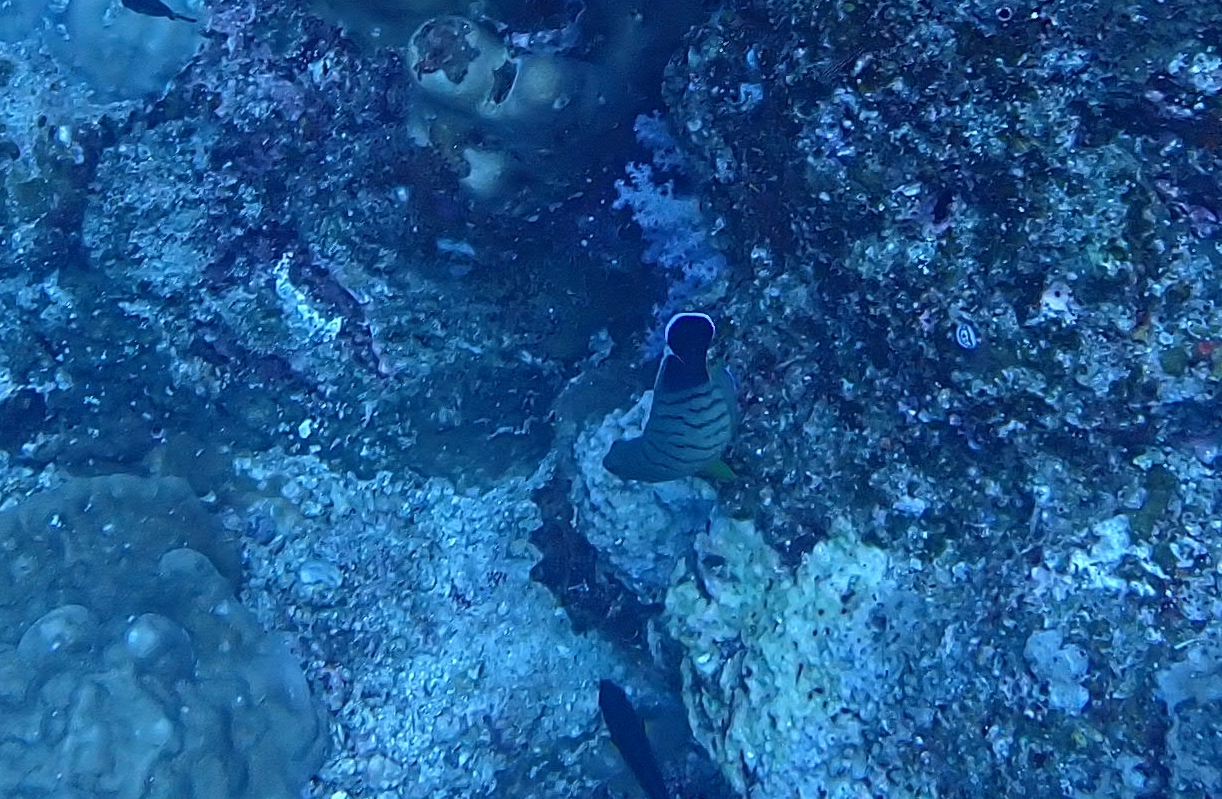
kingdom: Animalia
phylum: Chordata
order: Perciformes
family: Pomacanthidae
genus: Centropyge
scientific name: Centropyge eibli
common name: Eibl's angelfish
